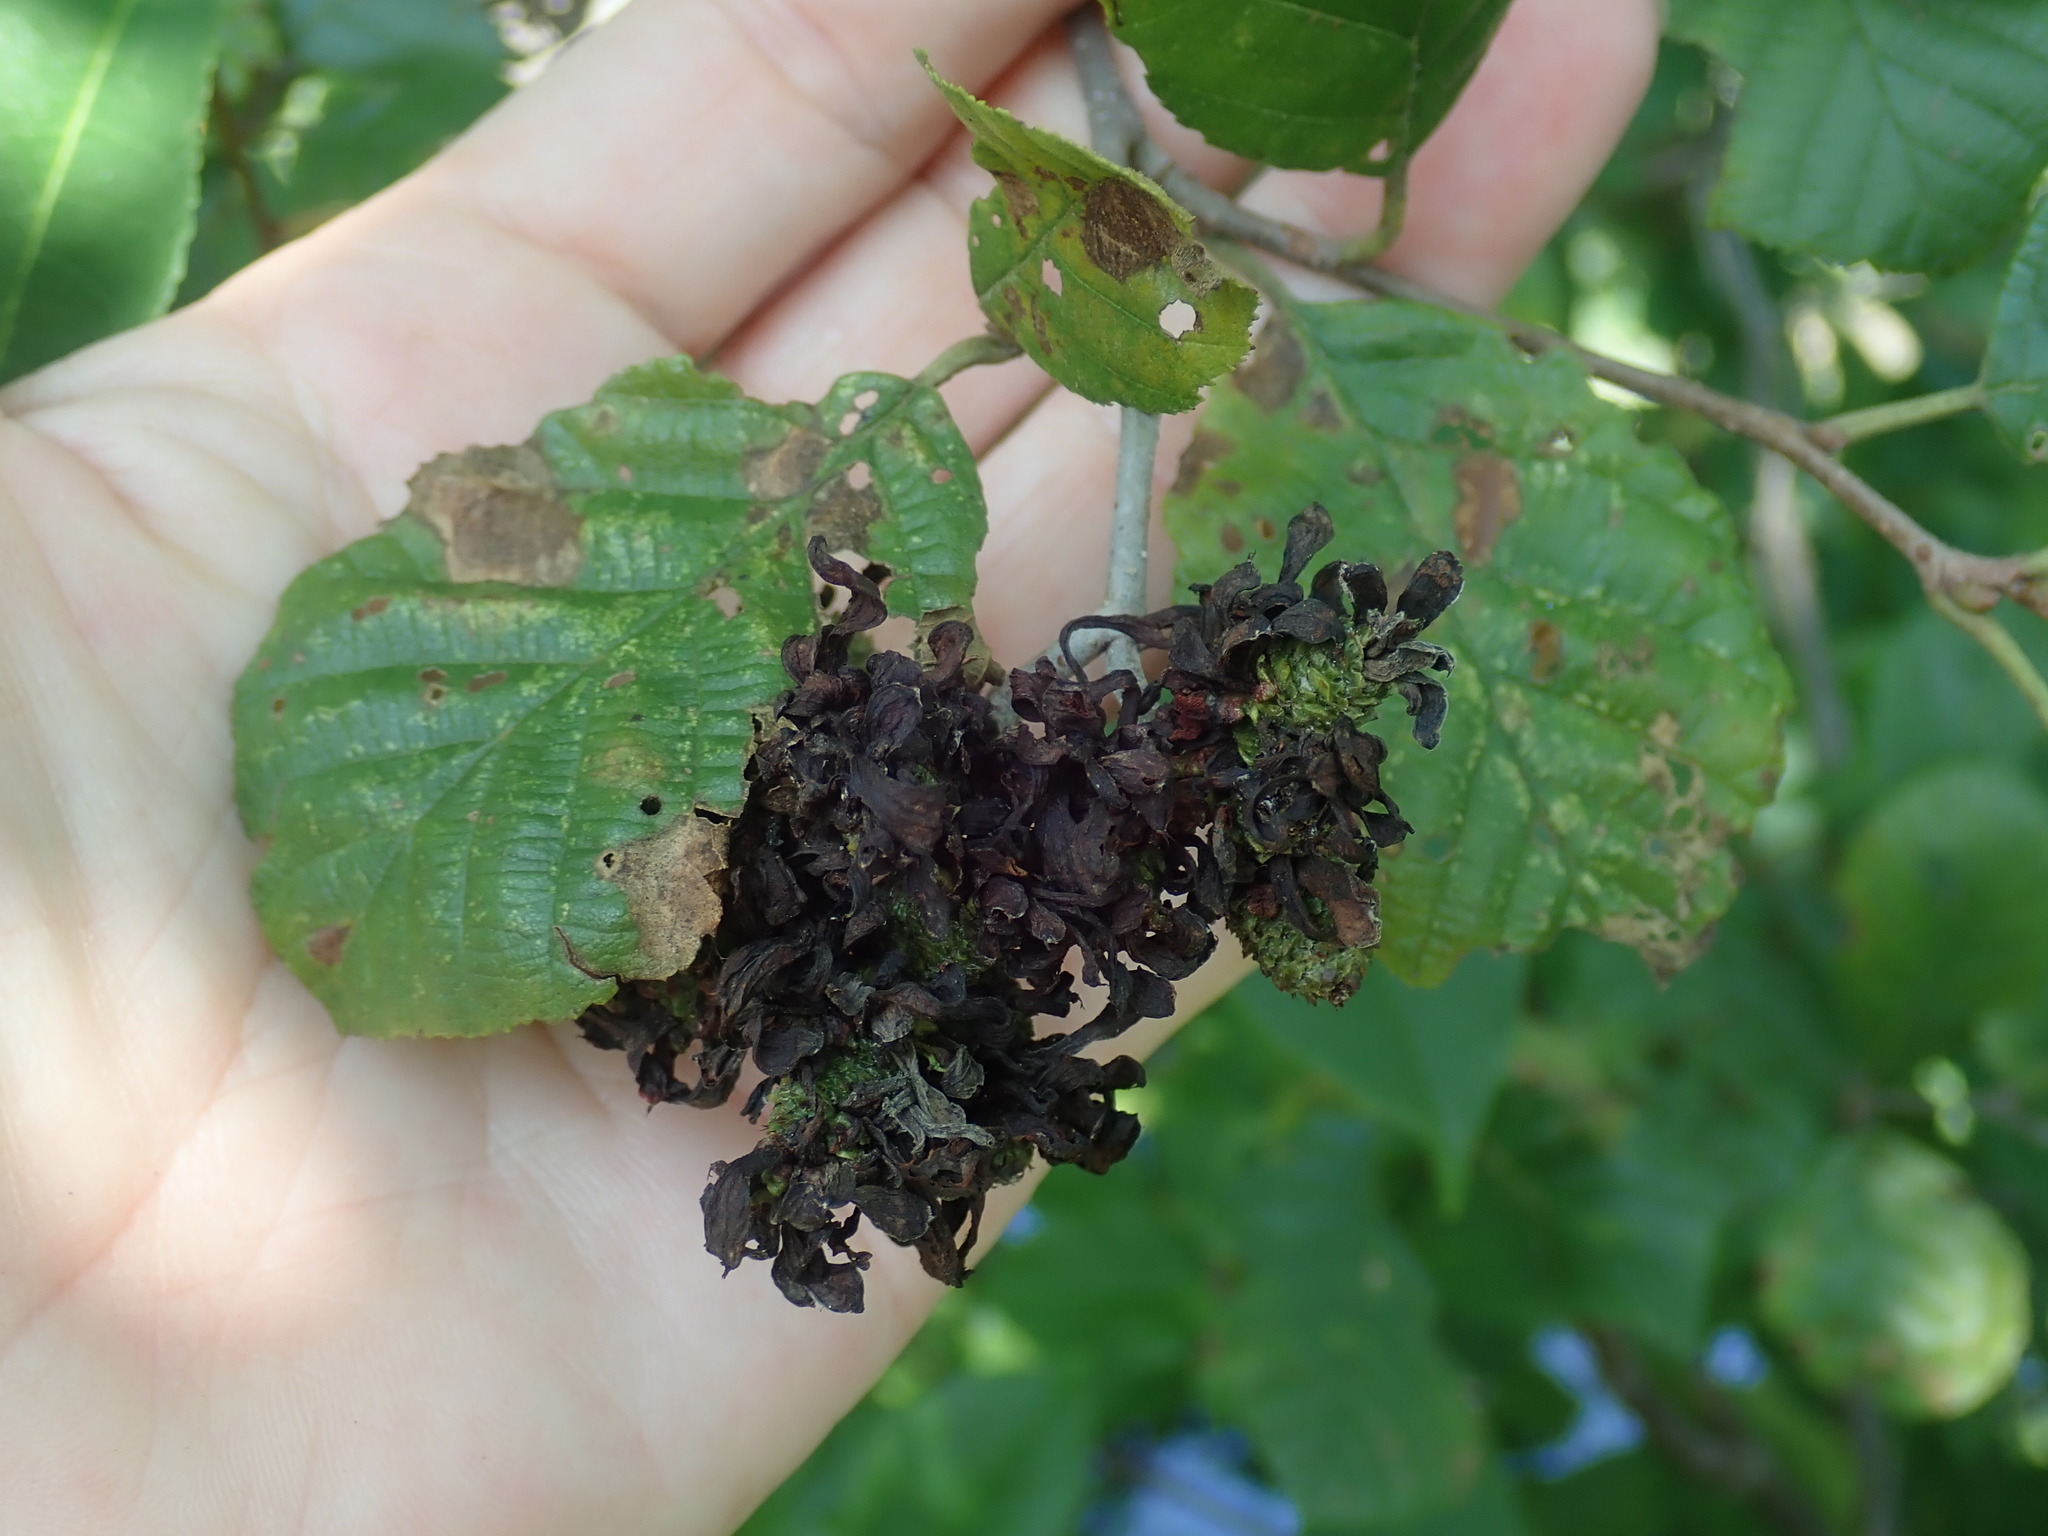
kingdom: Fungi
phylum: Ascomycota
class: Taphrinomycetes
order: Taphrinales
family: Taphrinaceae
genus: Taphrina
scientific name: Taphrina robinsoniana
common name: Eastern american alder tongue gall fungus
